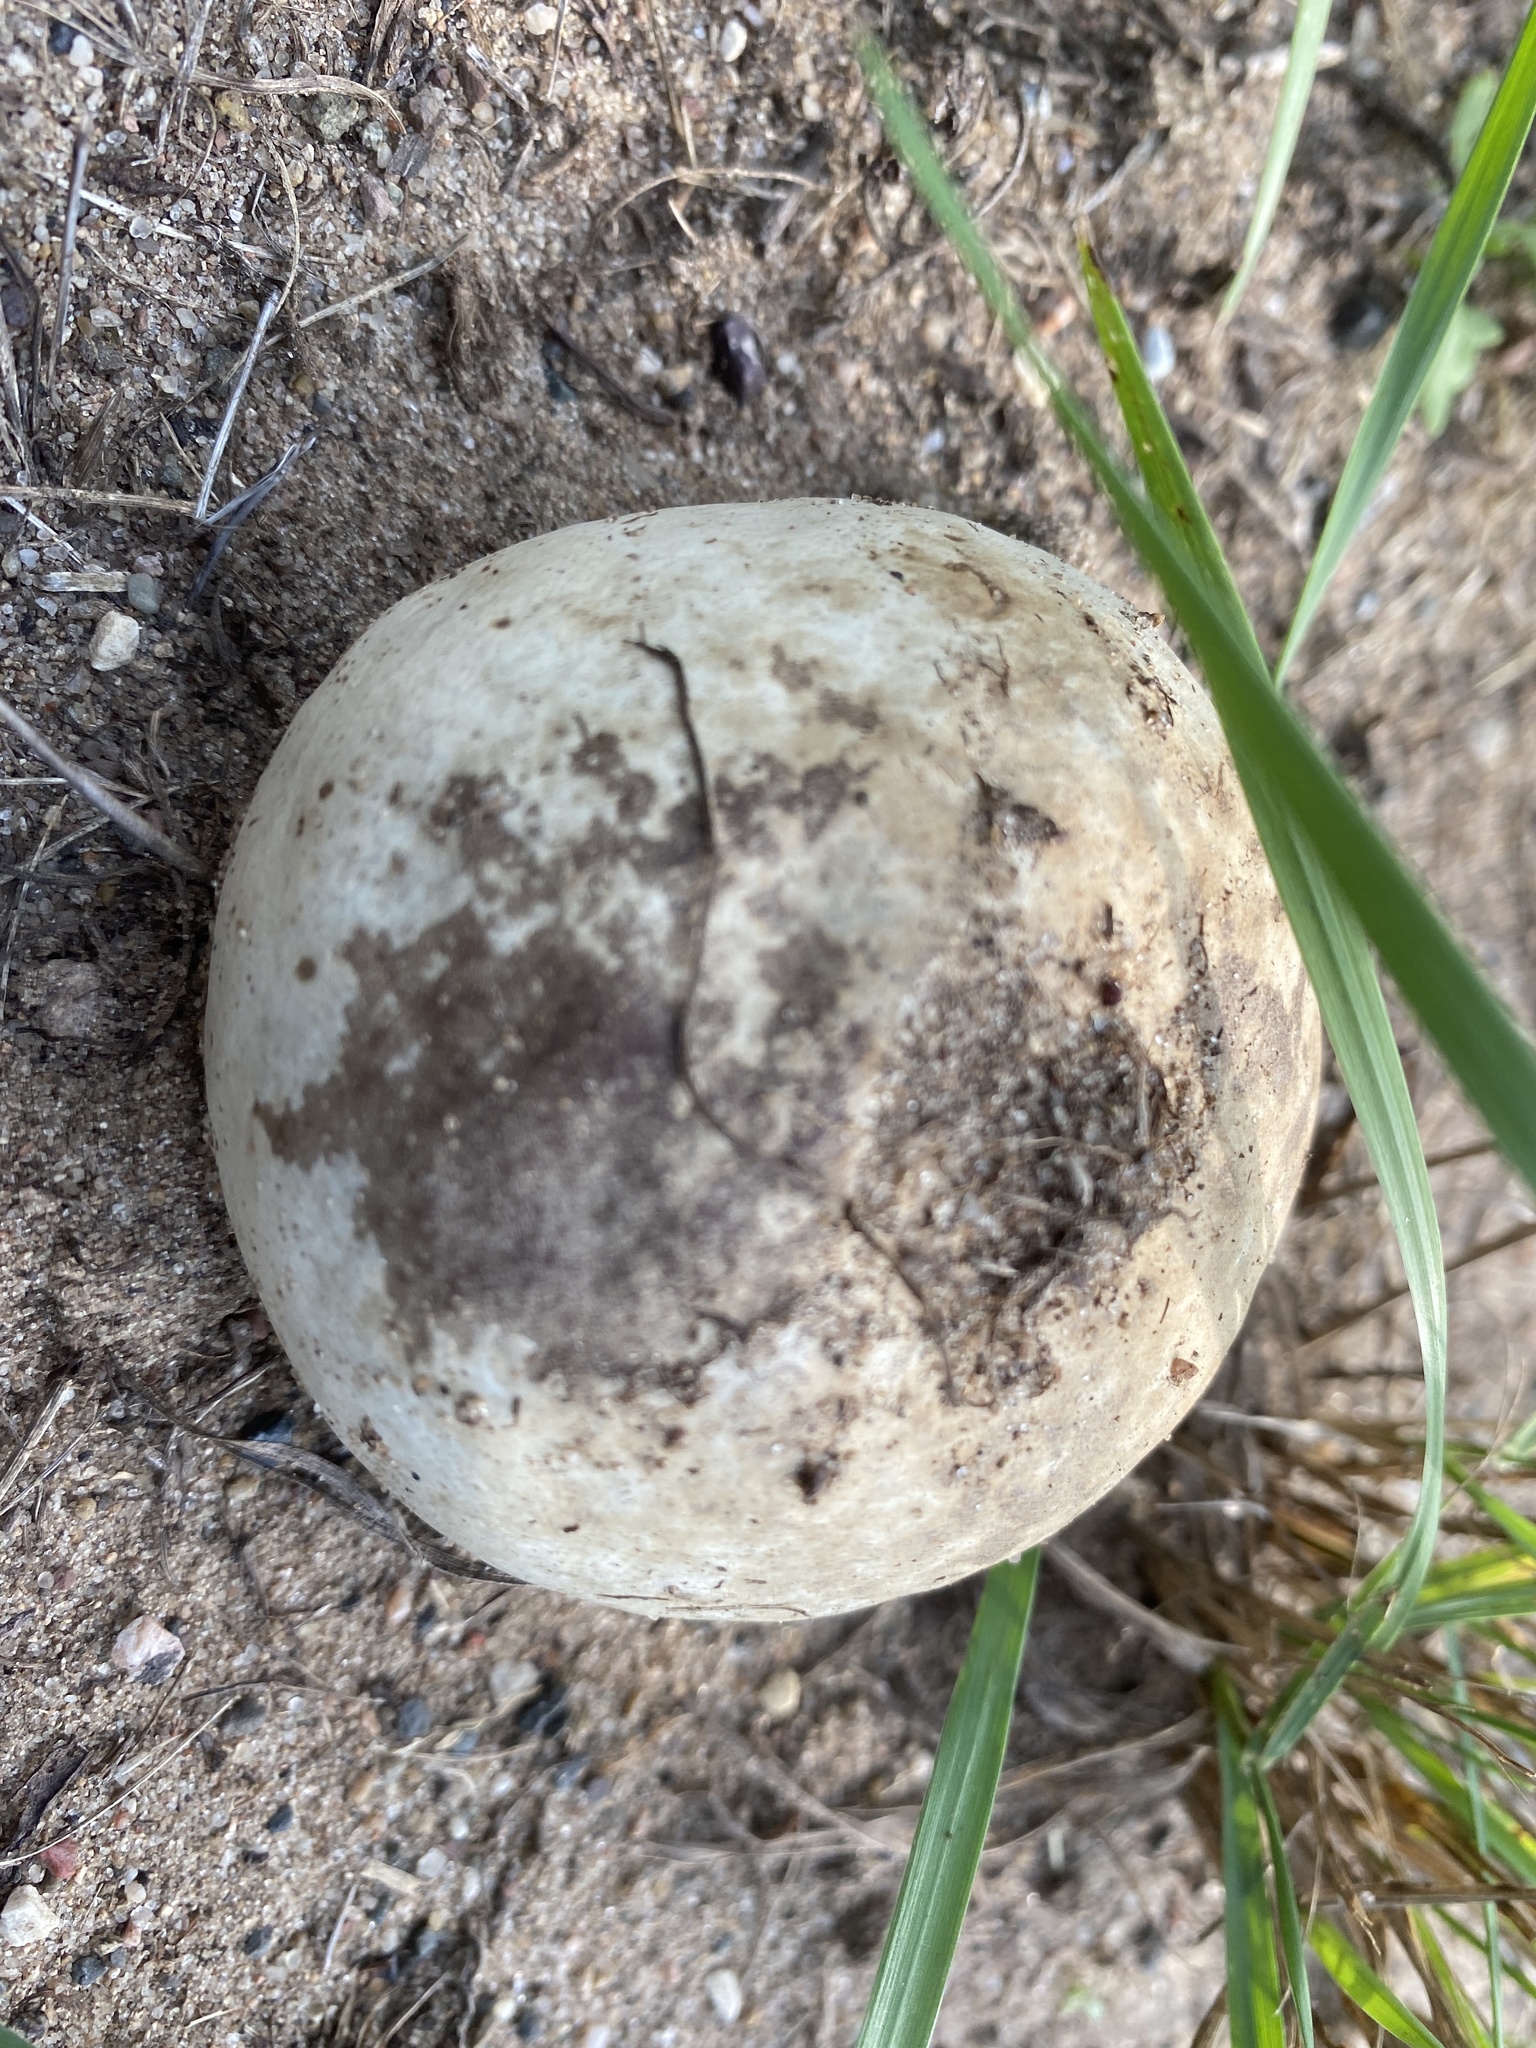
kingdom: Fungi
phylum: Basidiomycota
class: Agaricomycetes
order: Agaricales
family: Lycoperdaceae
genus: Calvatia
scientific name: Calvatia gigantea
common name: Giant puffball
